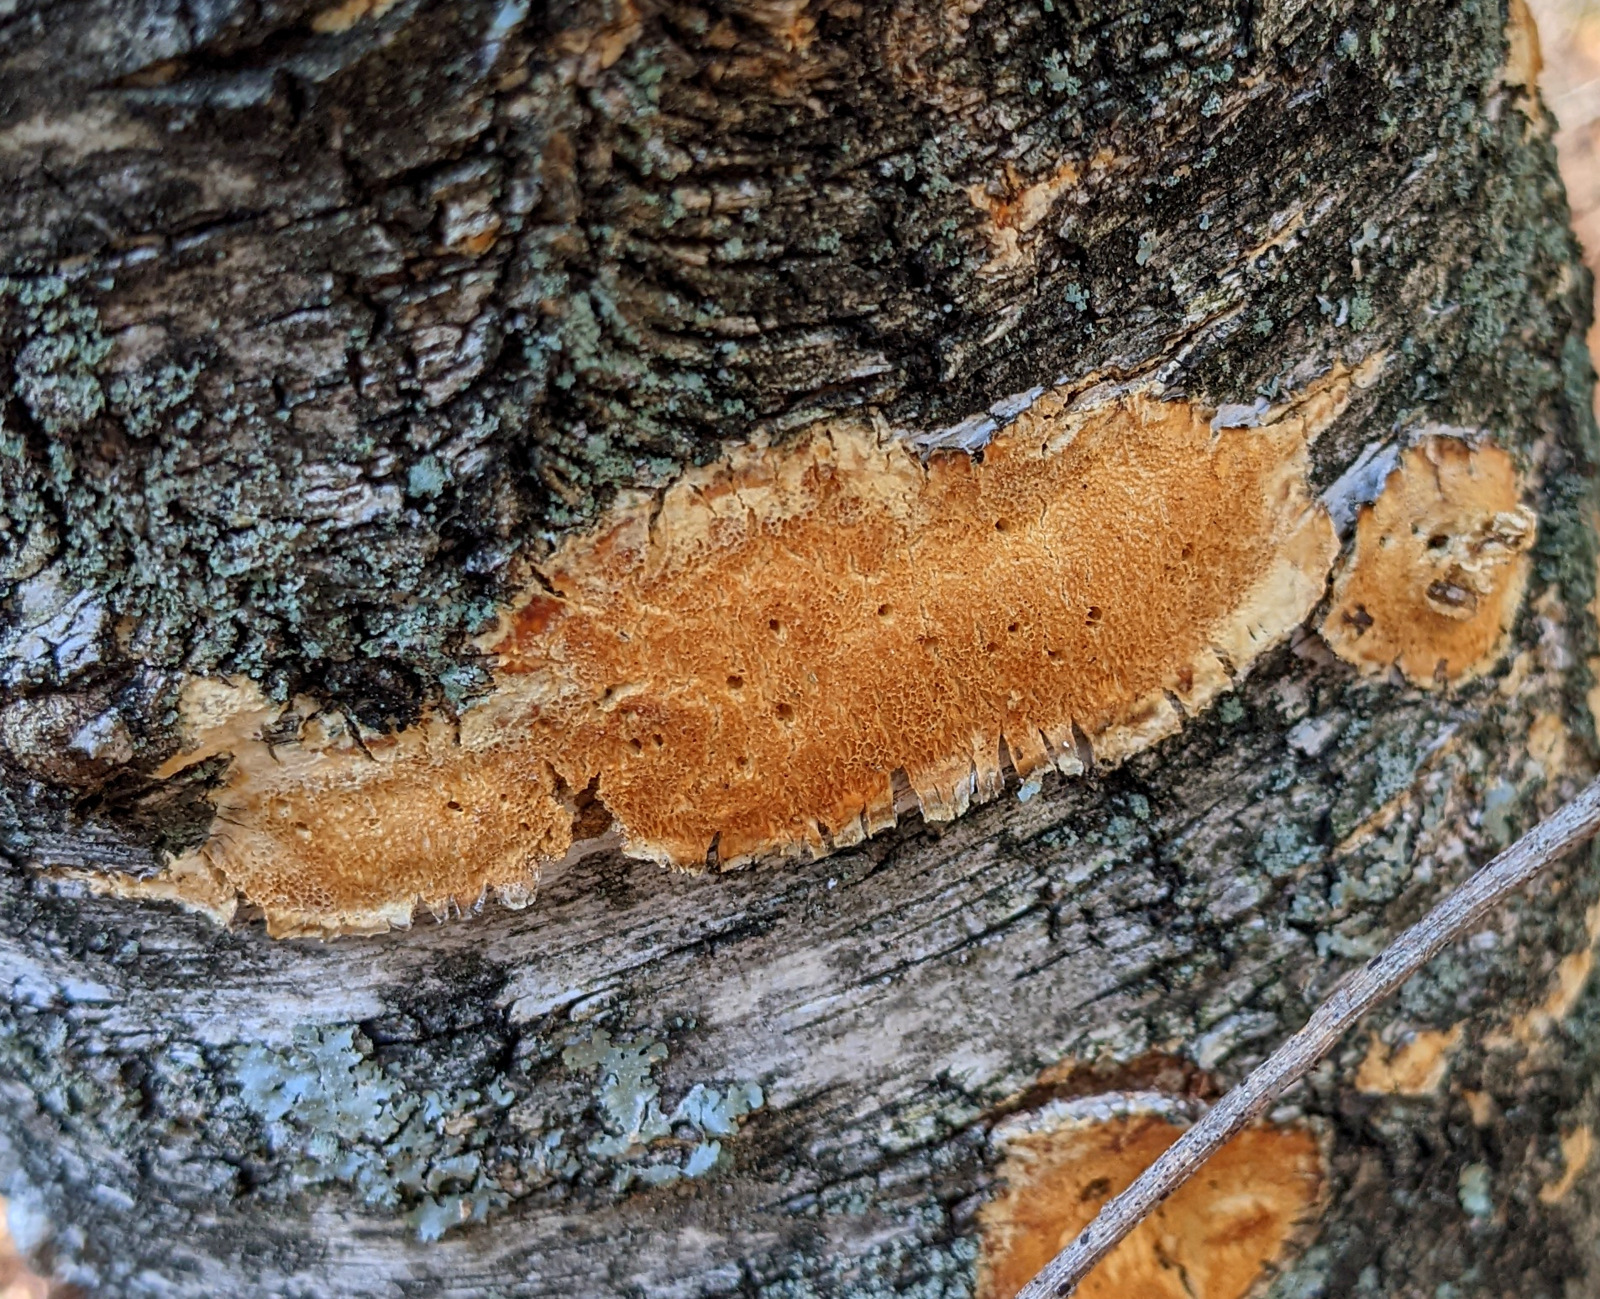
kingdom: Fungi
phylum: Basidiomycota
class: Agaricomycetes
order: Polyporales
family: Steccherinaceae
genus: Steccherinum
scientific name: Steccherinum ochraceum
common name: Ochre spreading tooth
